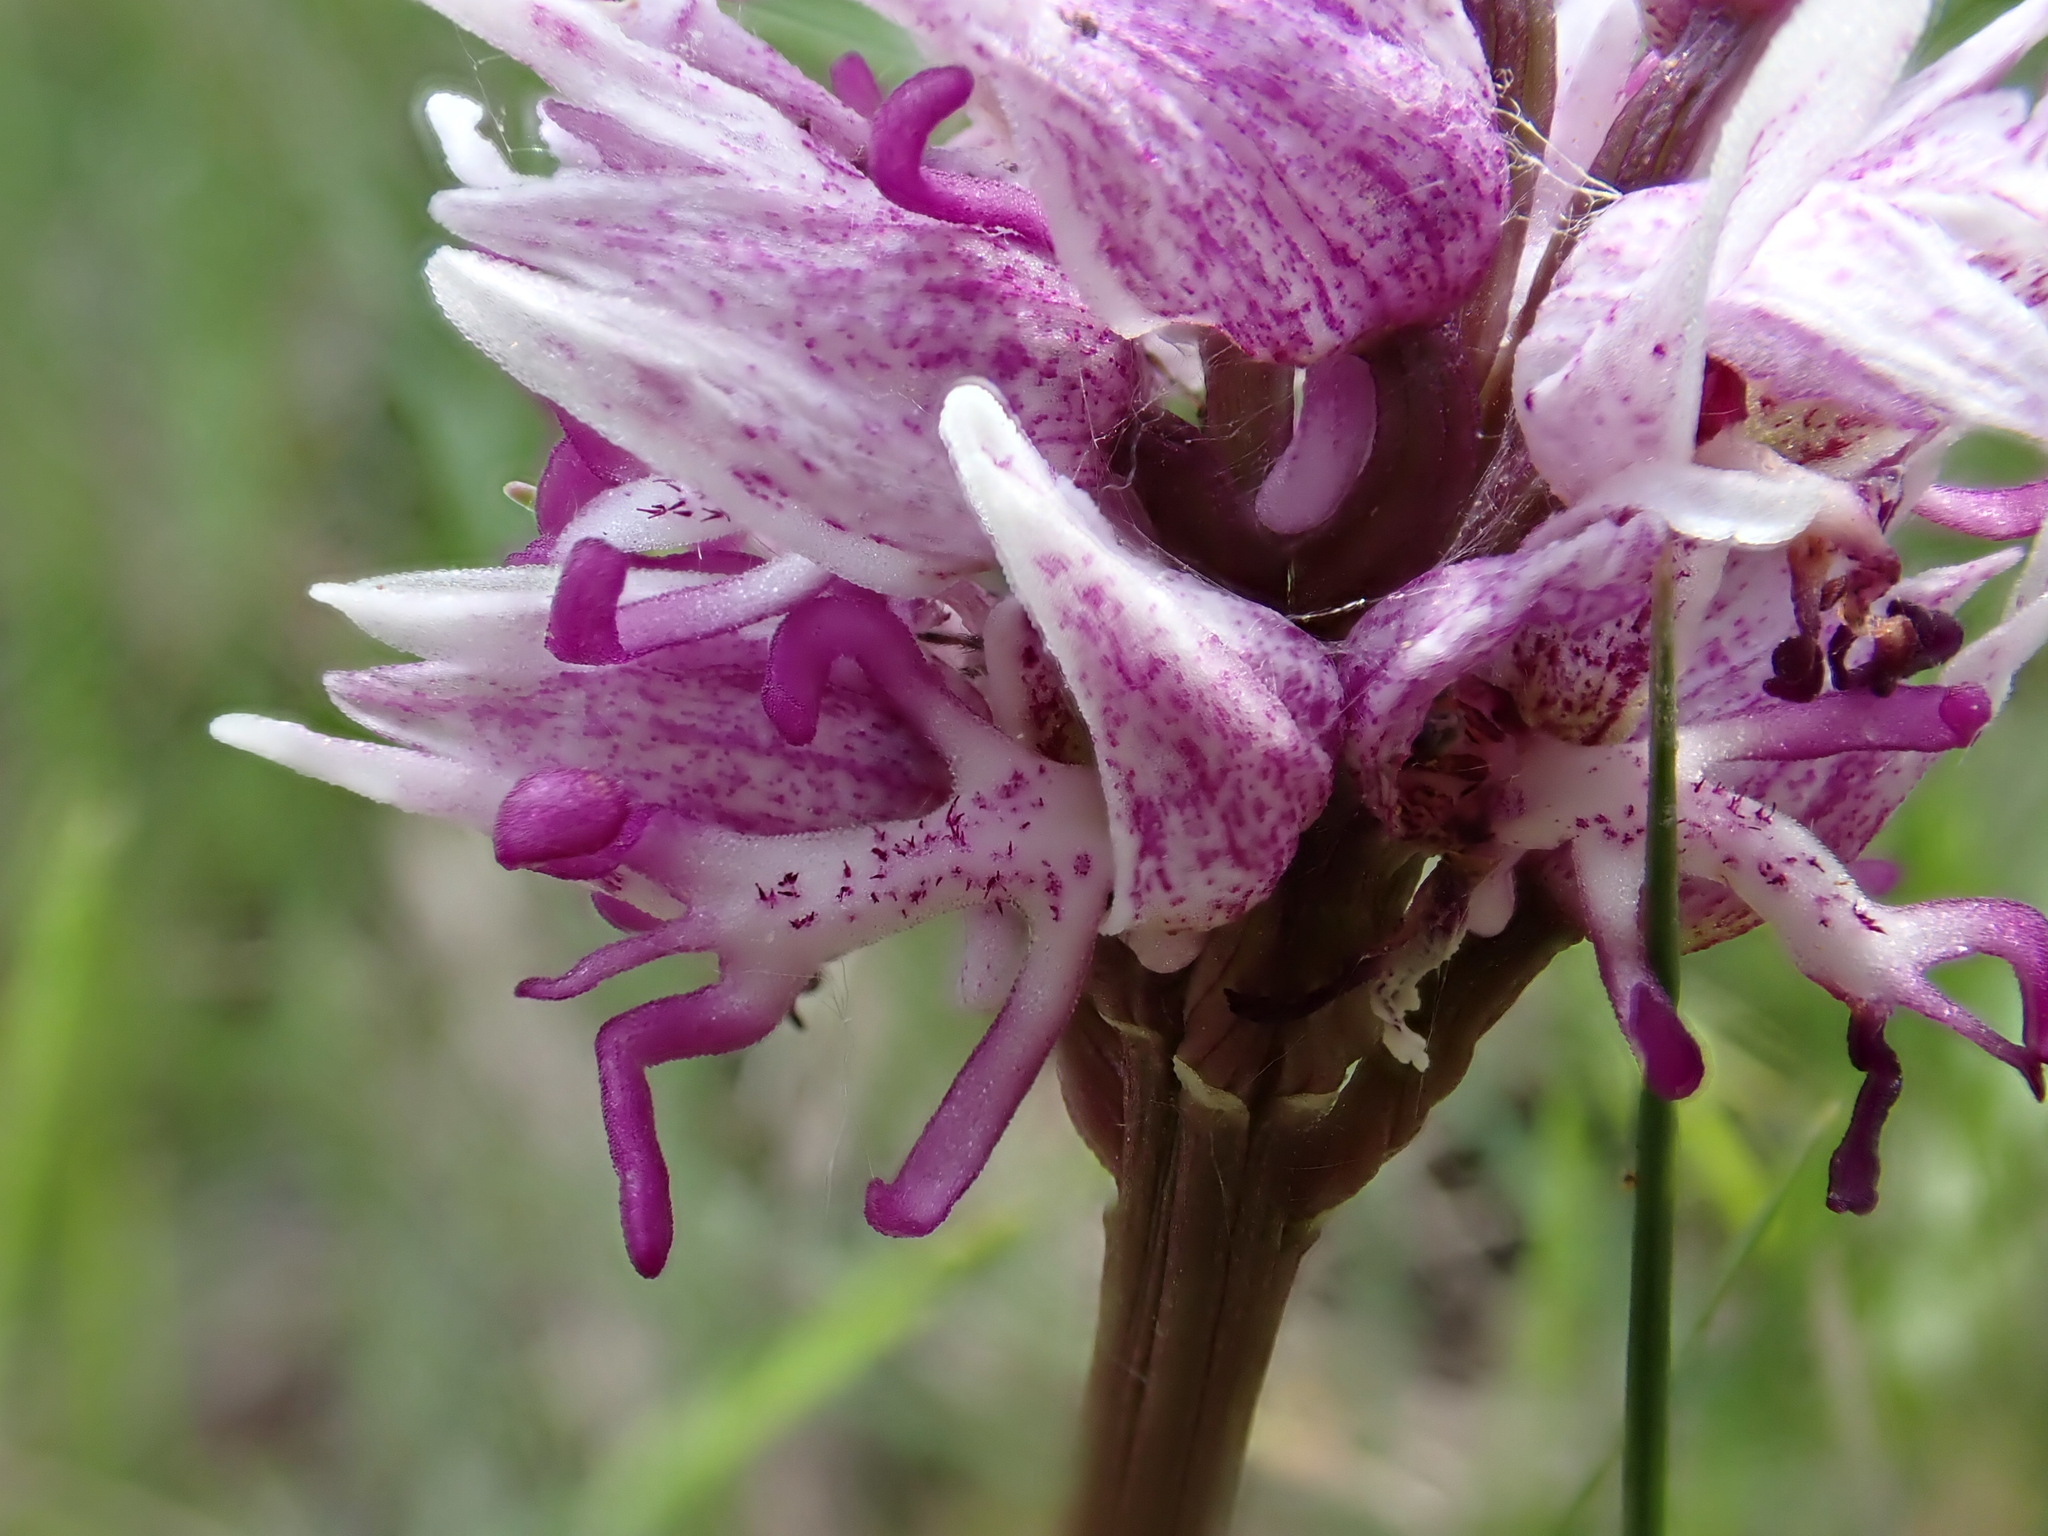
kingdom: Plantae
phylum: Tracheophyta
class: Liliopsida
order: Asparagales
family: Orchidaceae
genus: Orchis
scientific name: Orchis simia
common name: Monkey orchid
